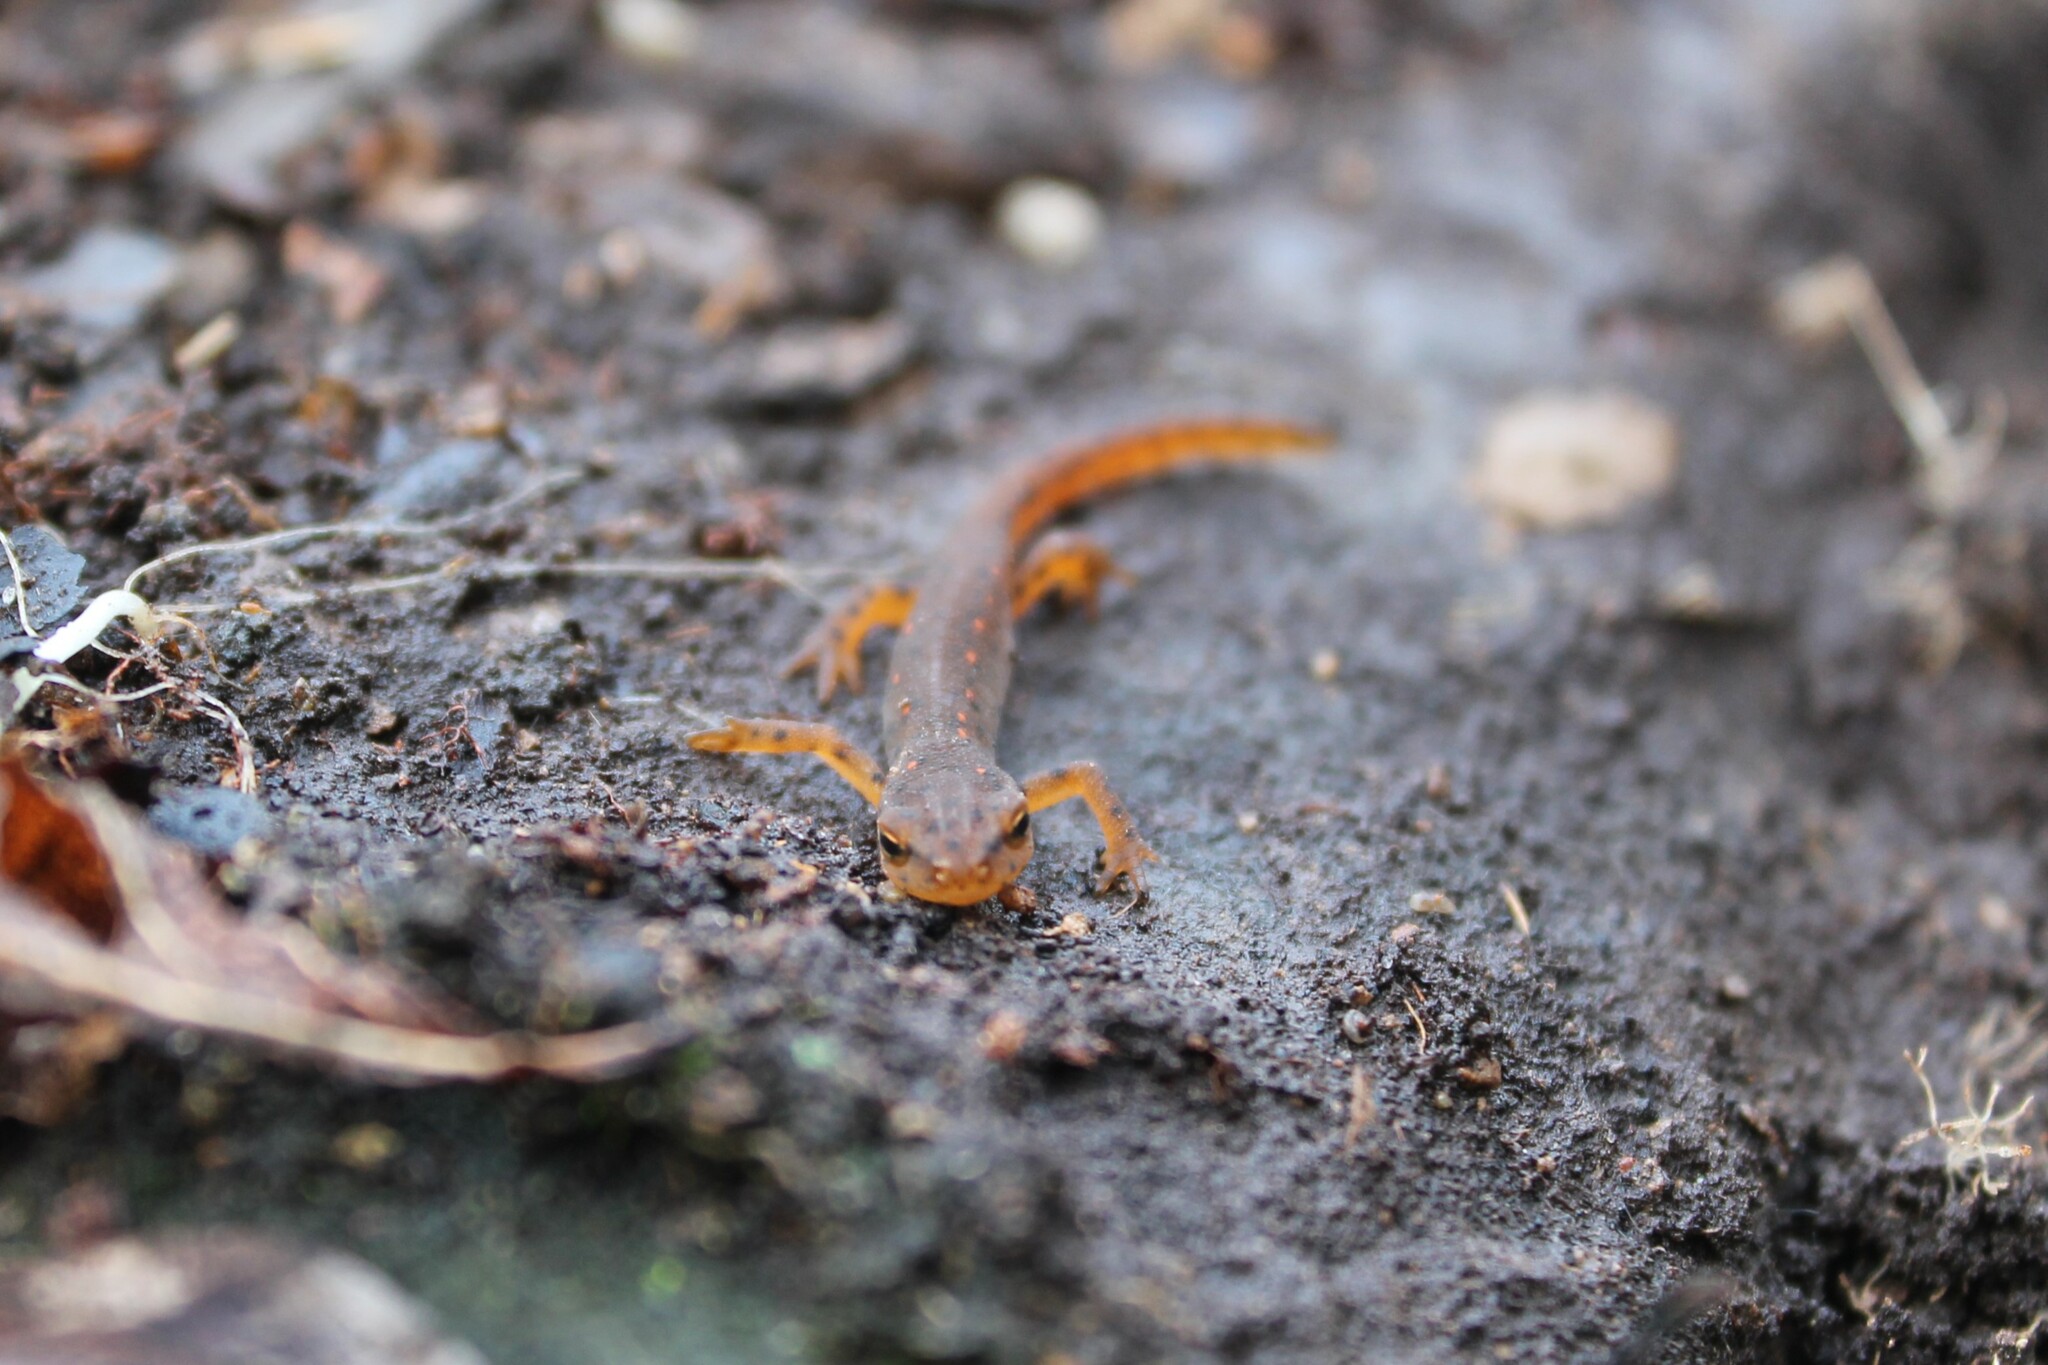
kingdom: Animalia
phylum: Chordata
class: Amphibia
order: Caudata
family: Salamandridae
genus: Notophthalmus
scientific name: Notophthalmus viridescens
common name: Eastern newt
